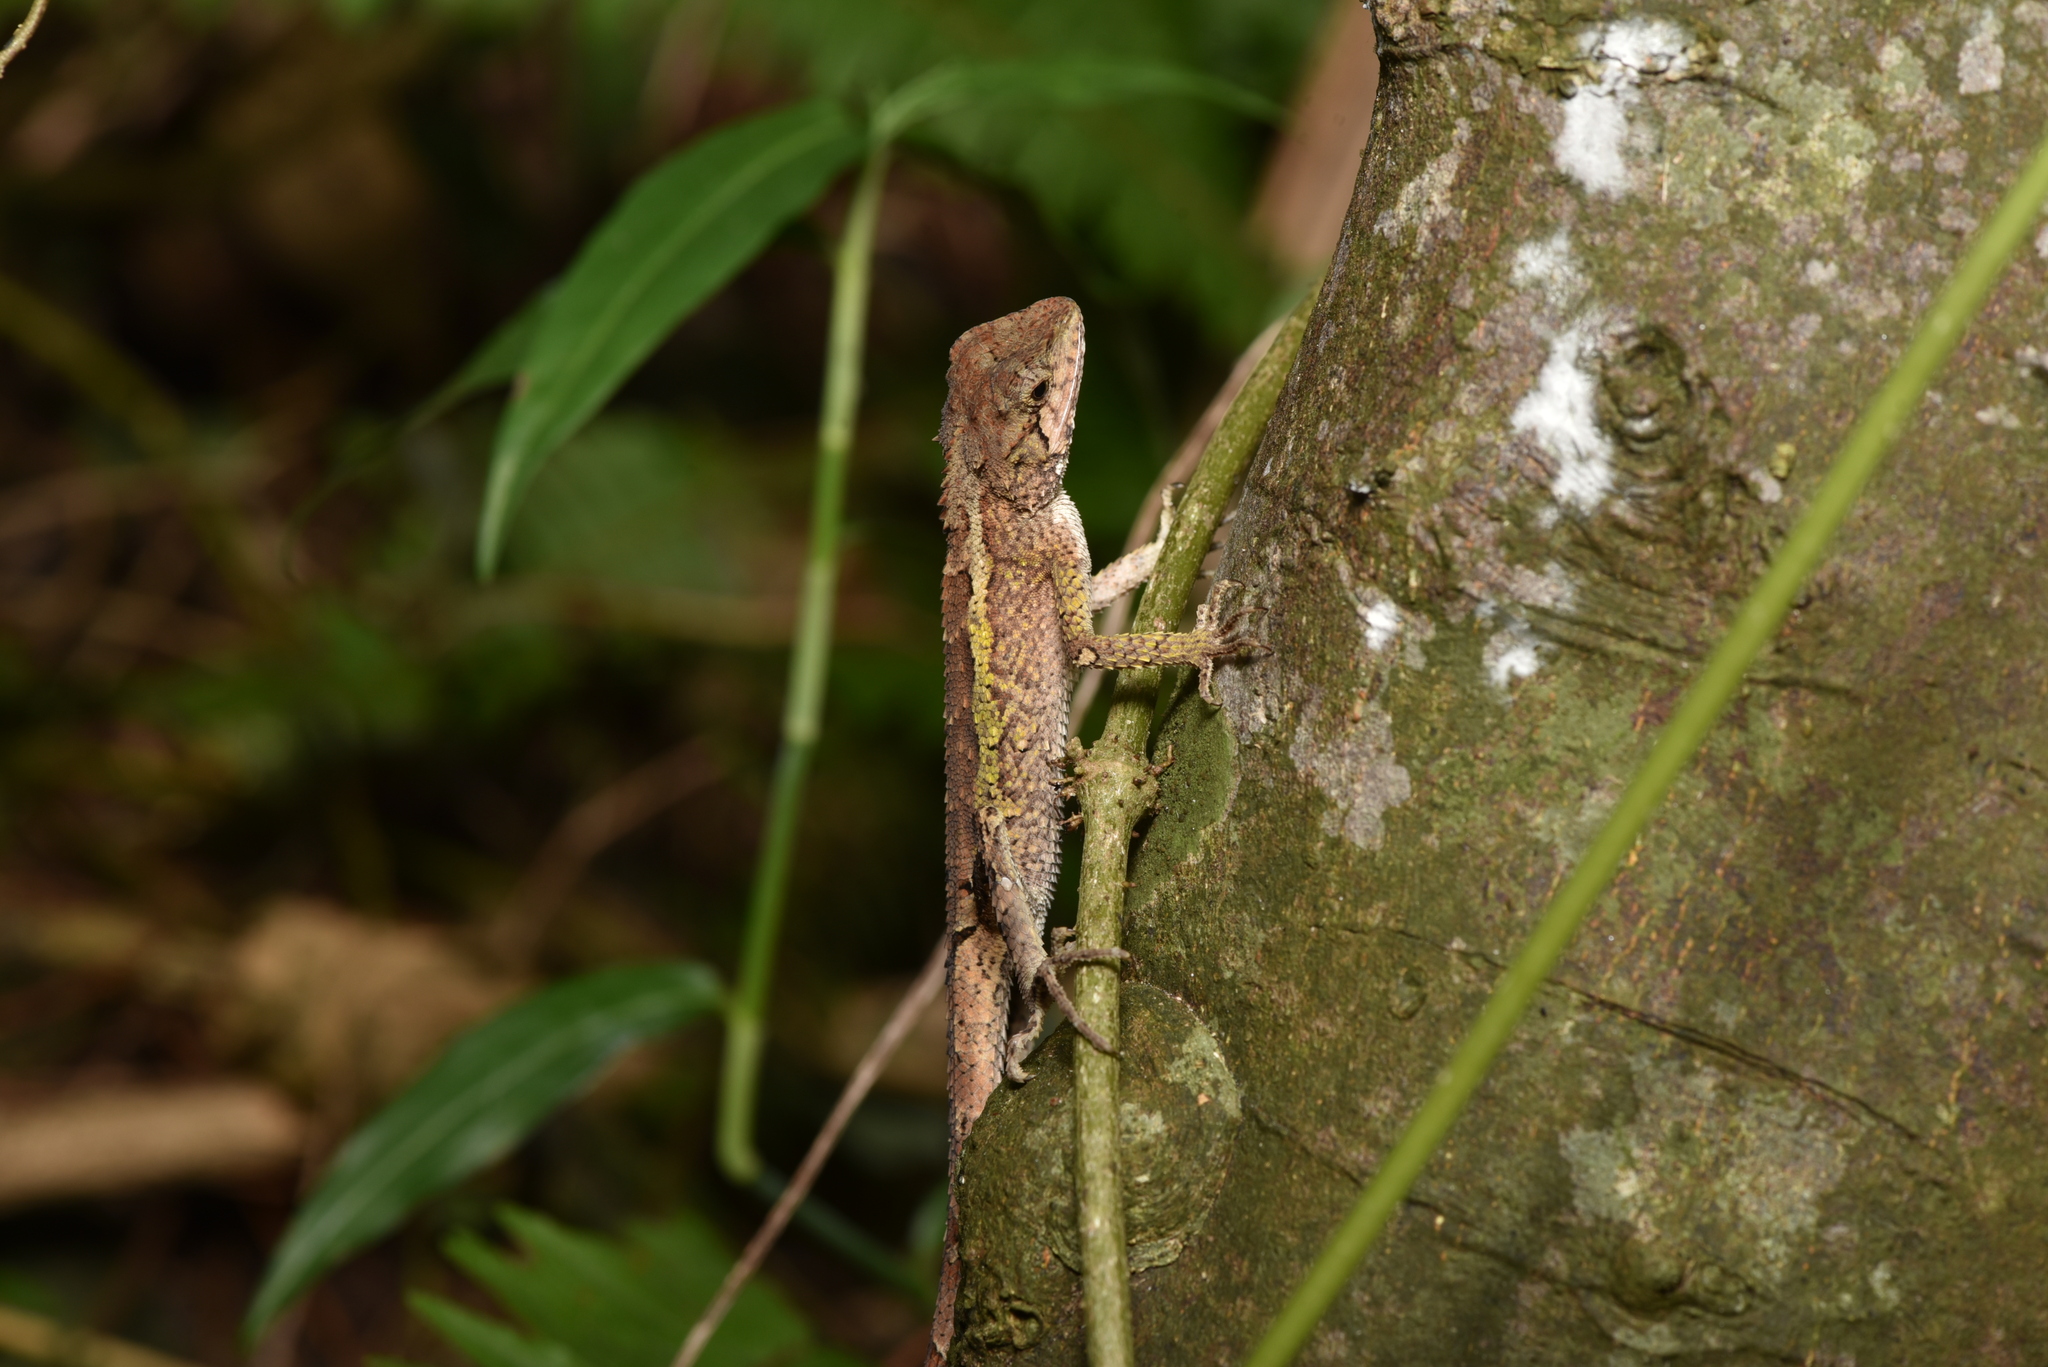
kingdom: Animalia
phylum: Chordata
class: Squamata
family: Agamidae
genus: Diploderma
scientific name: Diploderma swinhonis
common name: Taiwan japalure
